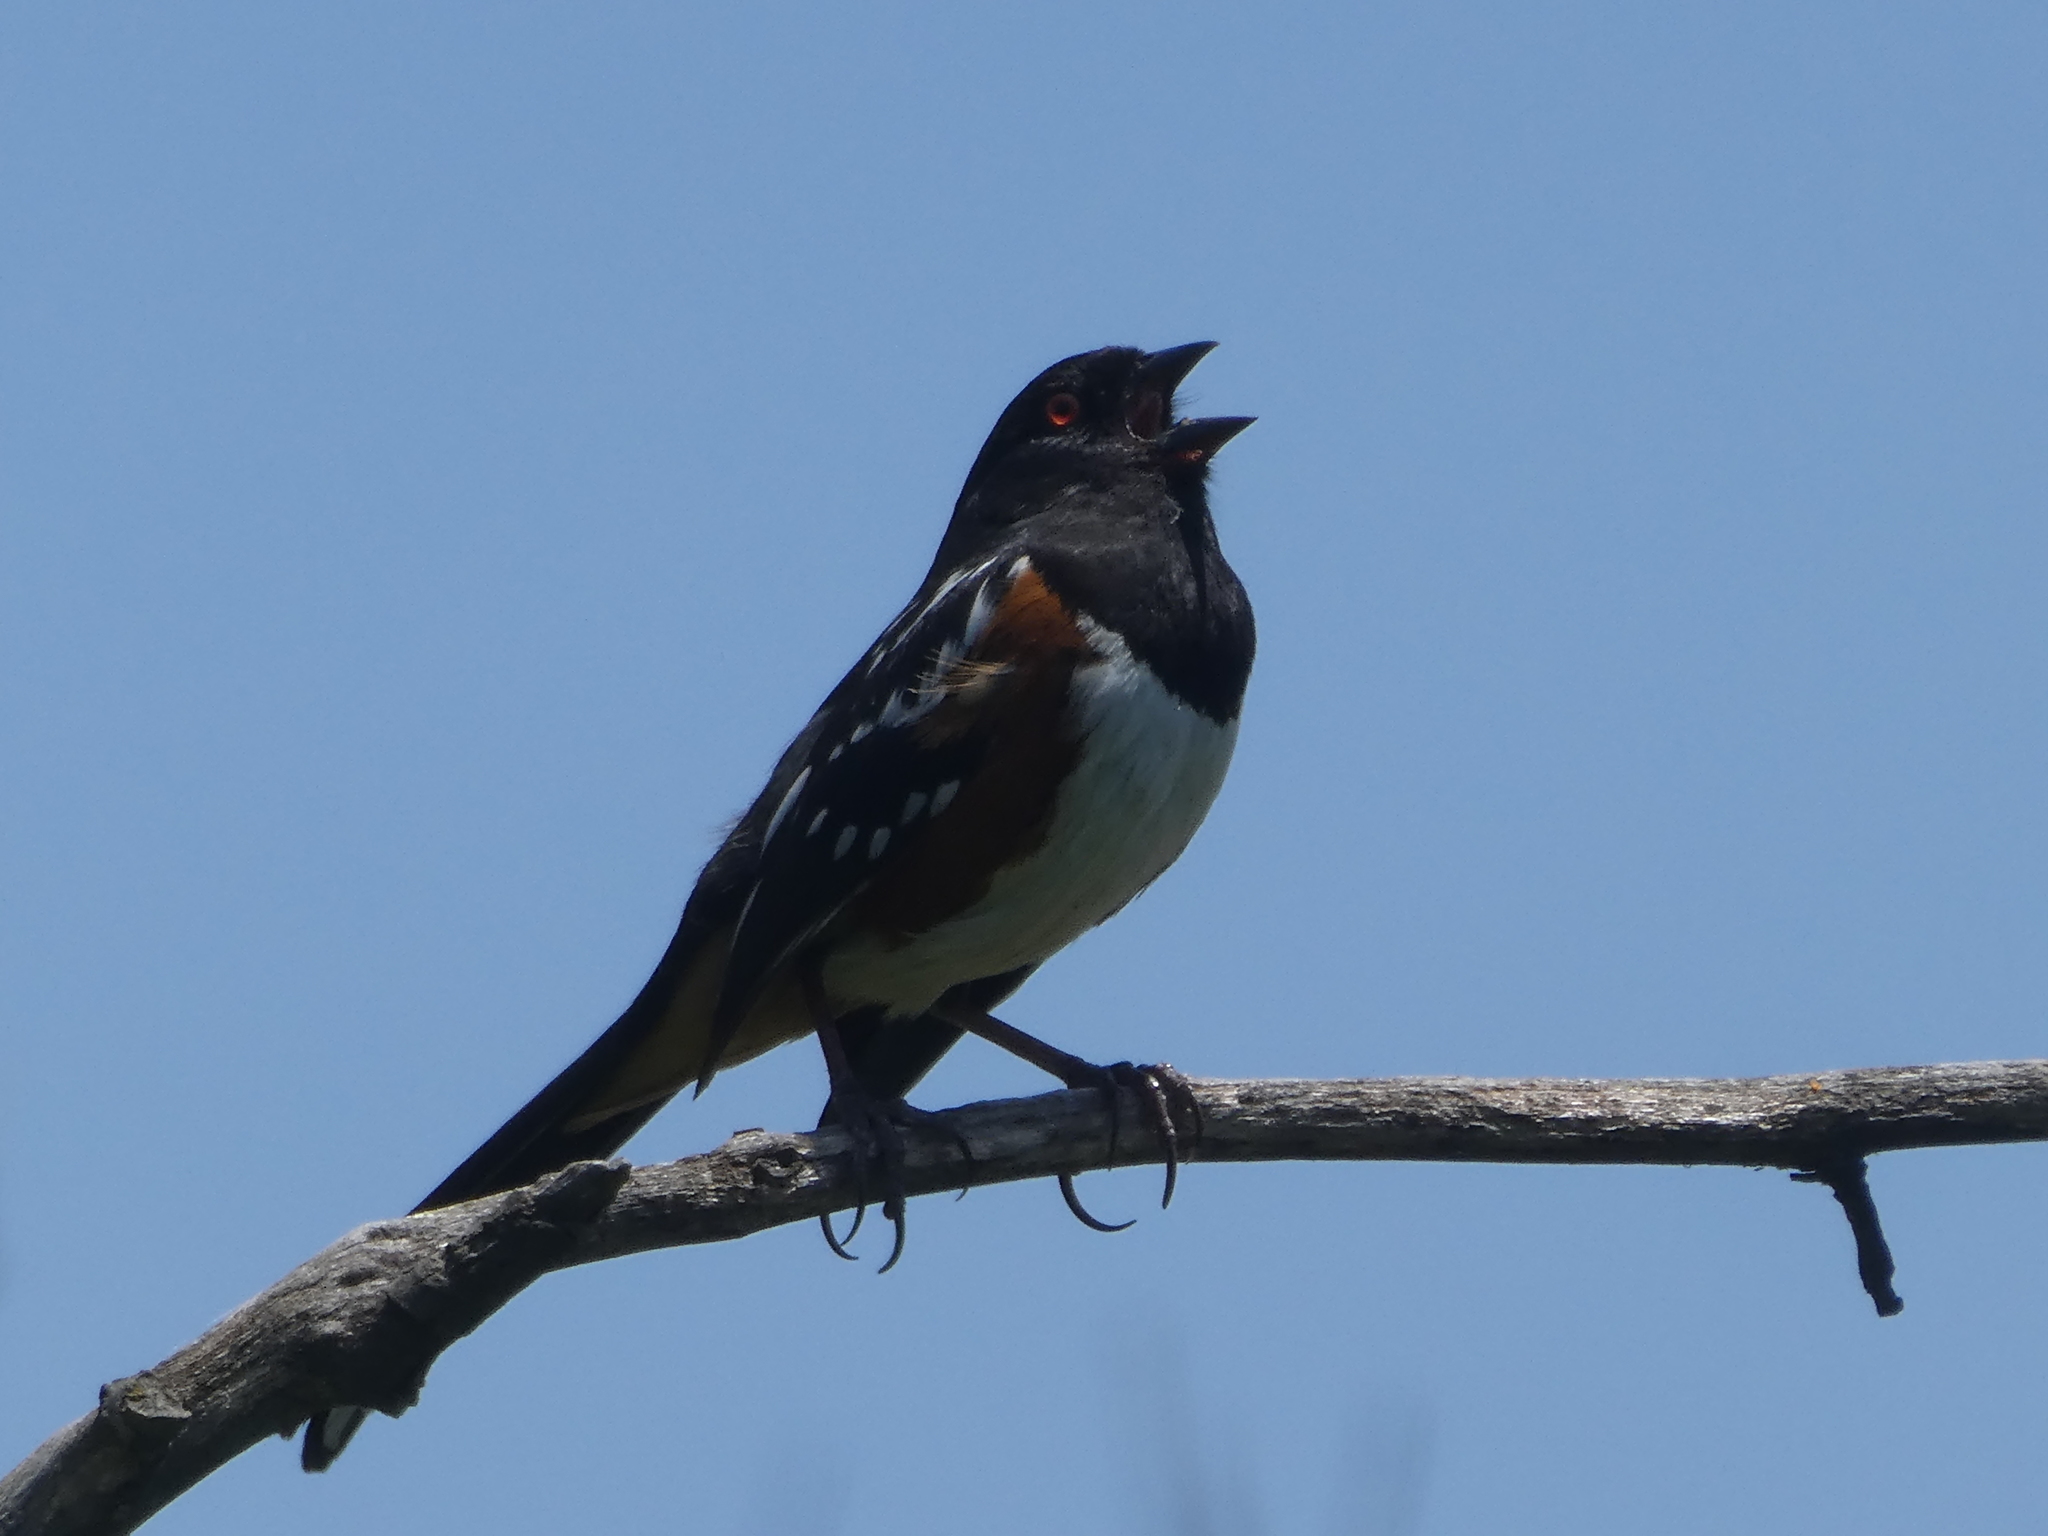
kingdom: Animalia
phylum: Chordata
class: Aves
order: Passeriformes
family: Passerellidae
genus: Pipilo
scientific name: Pipilo maculatus
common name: Spotted towhee
